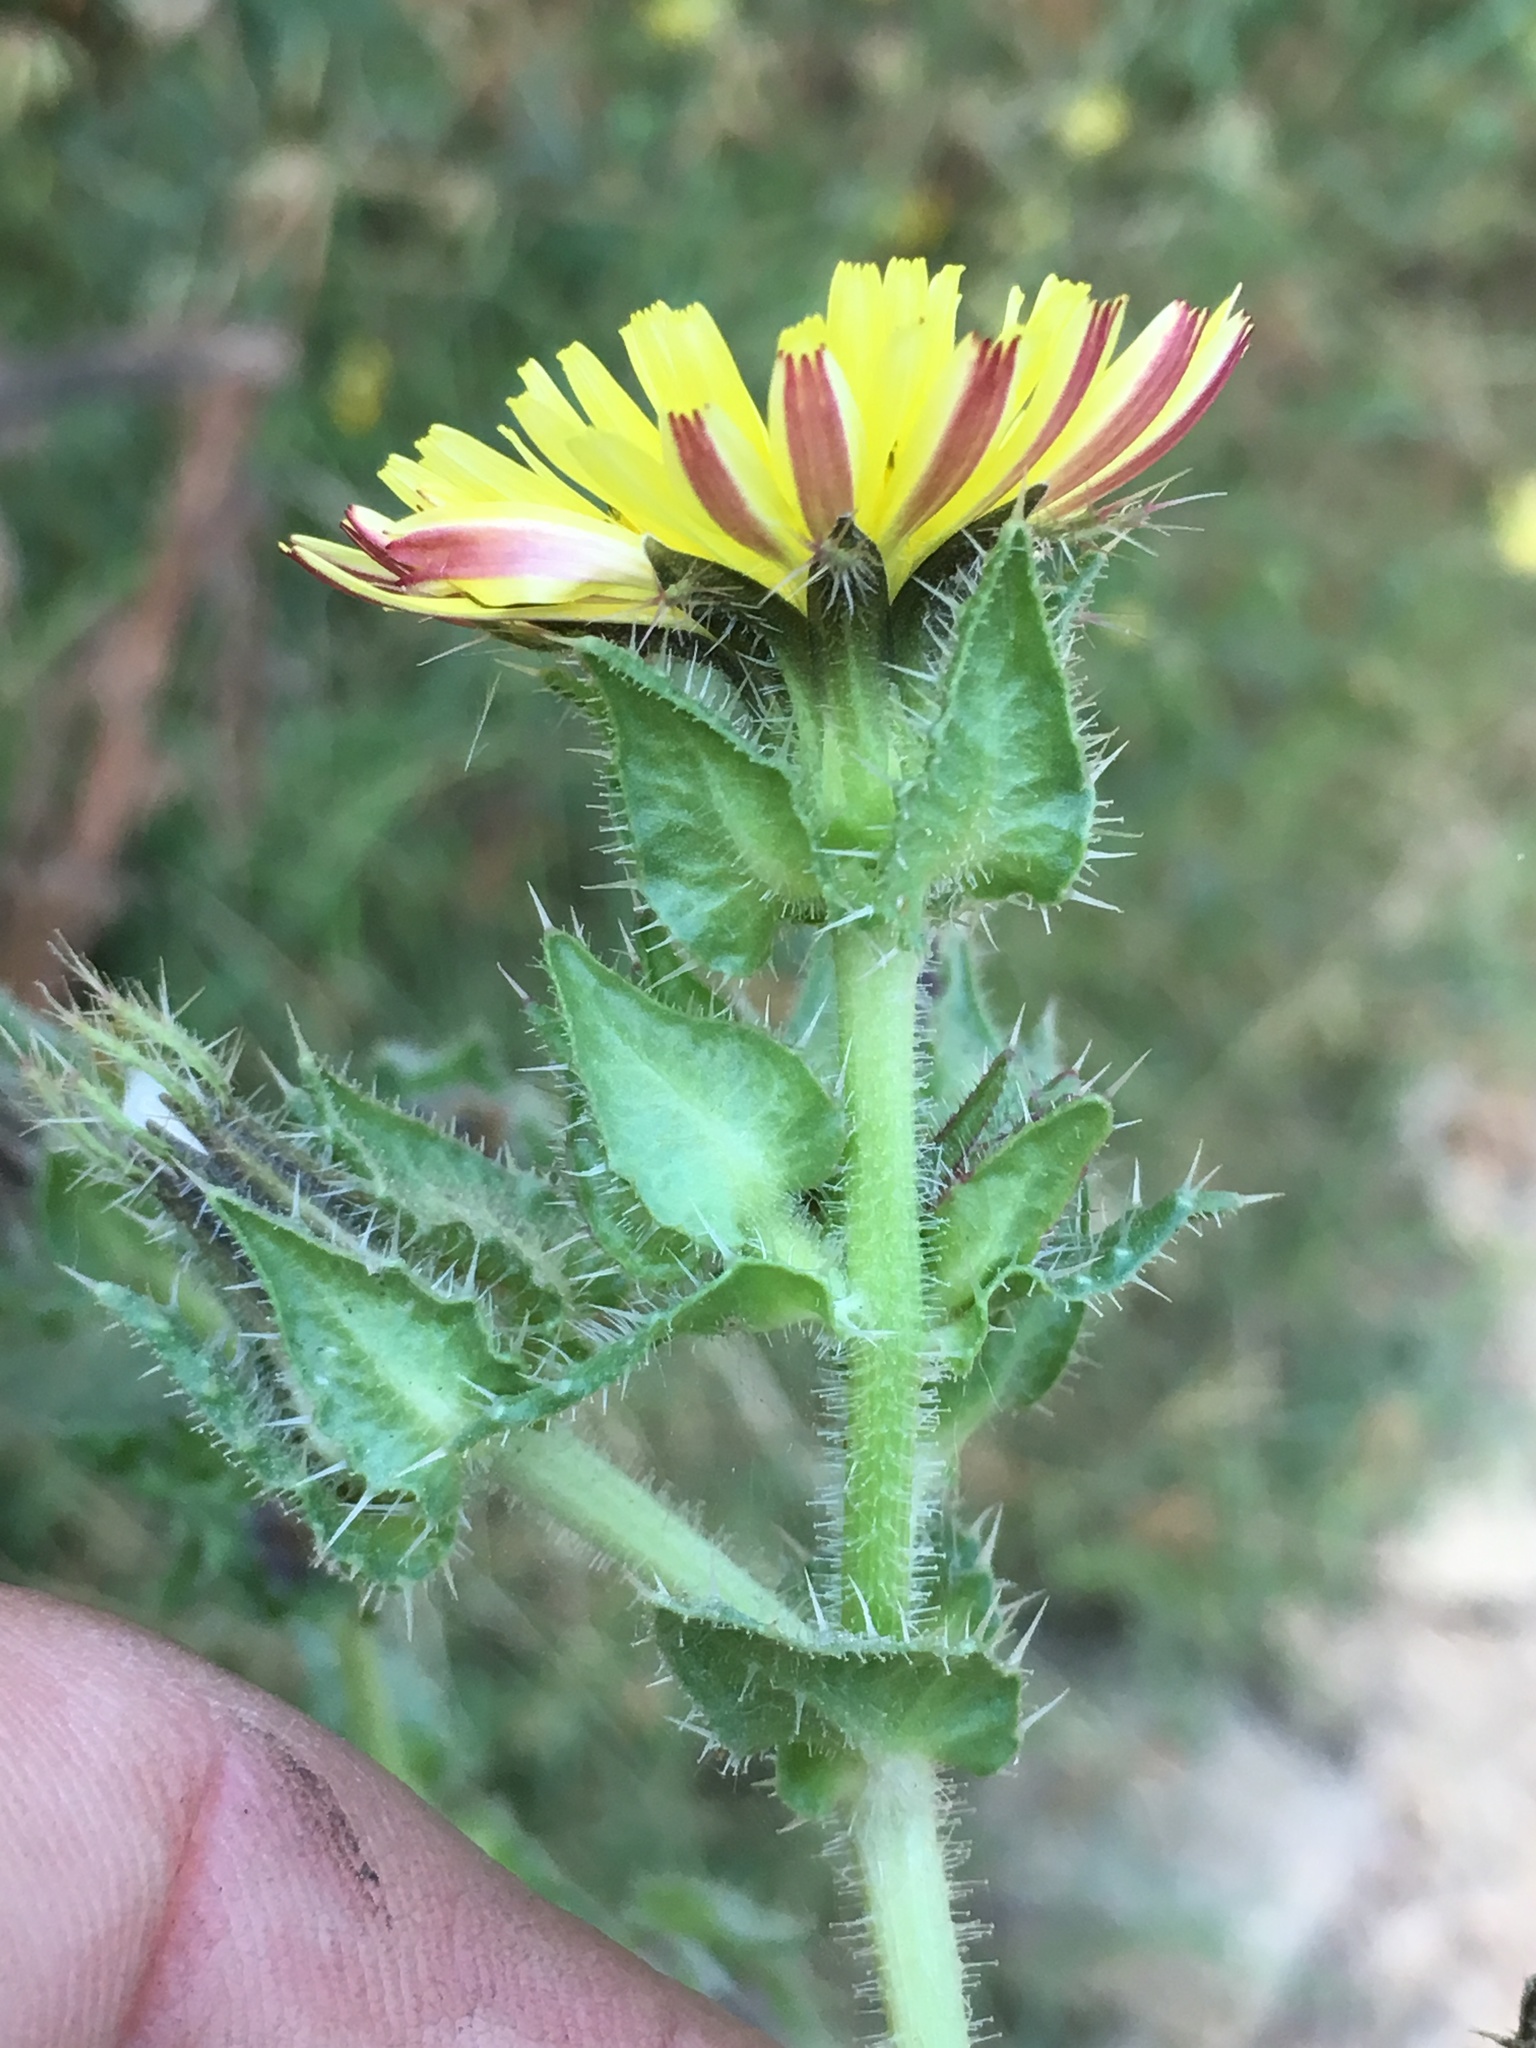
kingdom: Plantae
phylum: Tracheophyta
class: Magnoliopsida
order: Asterales
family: Asteraceae
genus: Helminthotheca
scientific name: Helminthotheca echioides
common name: Ox-tongue
